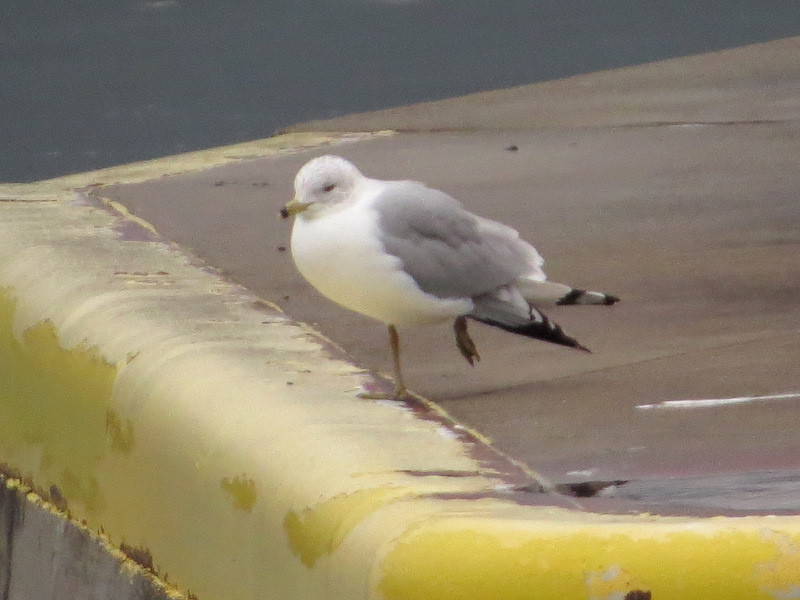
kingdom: Animalia
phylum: Chordata
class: Aves
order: Charadriiformes
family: Laridae
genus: Larus
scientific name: Larus delawarensis
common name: Ring-billed gull
